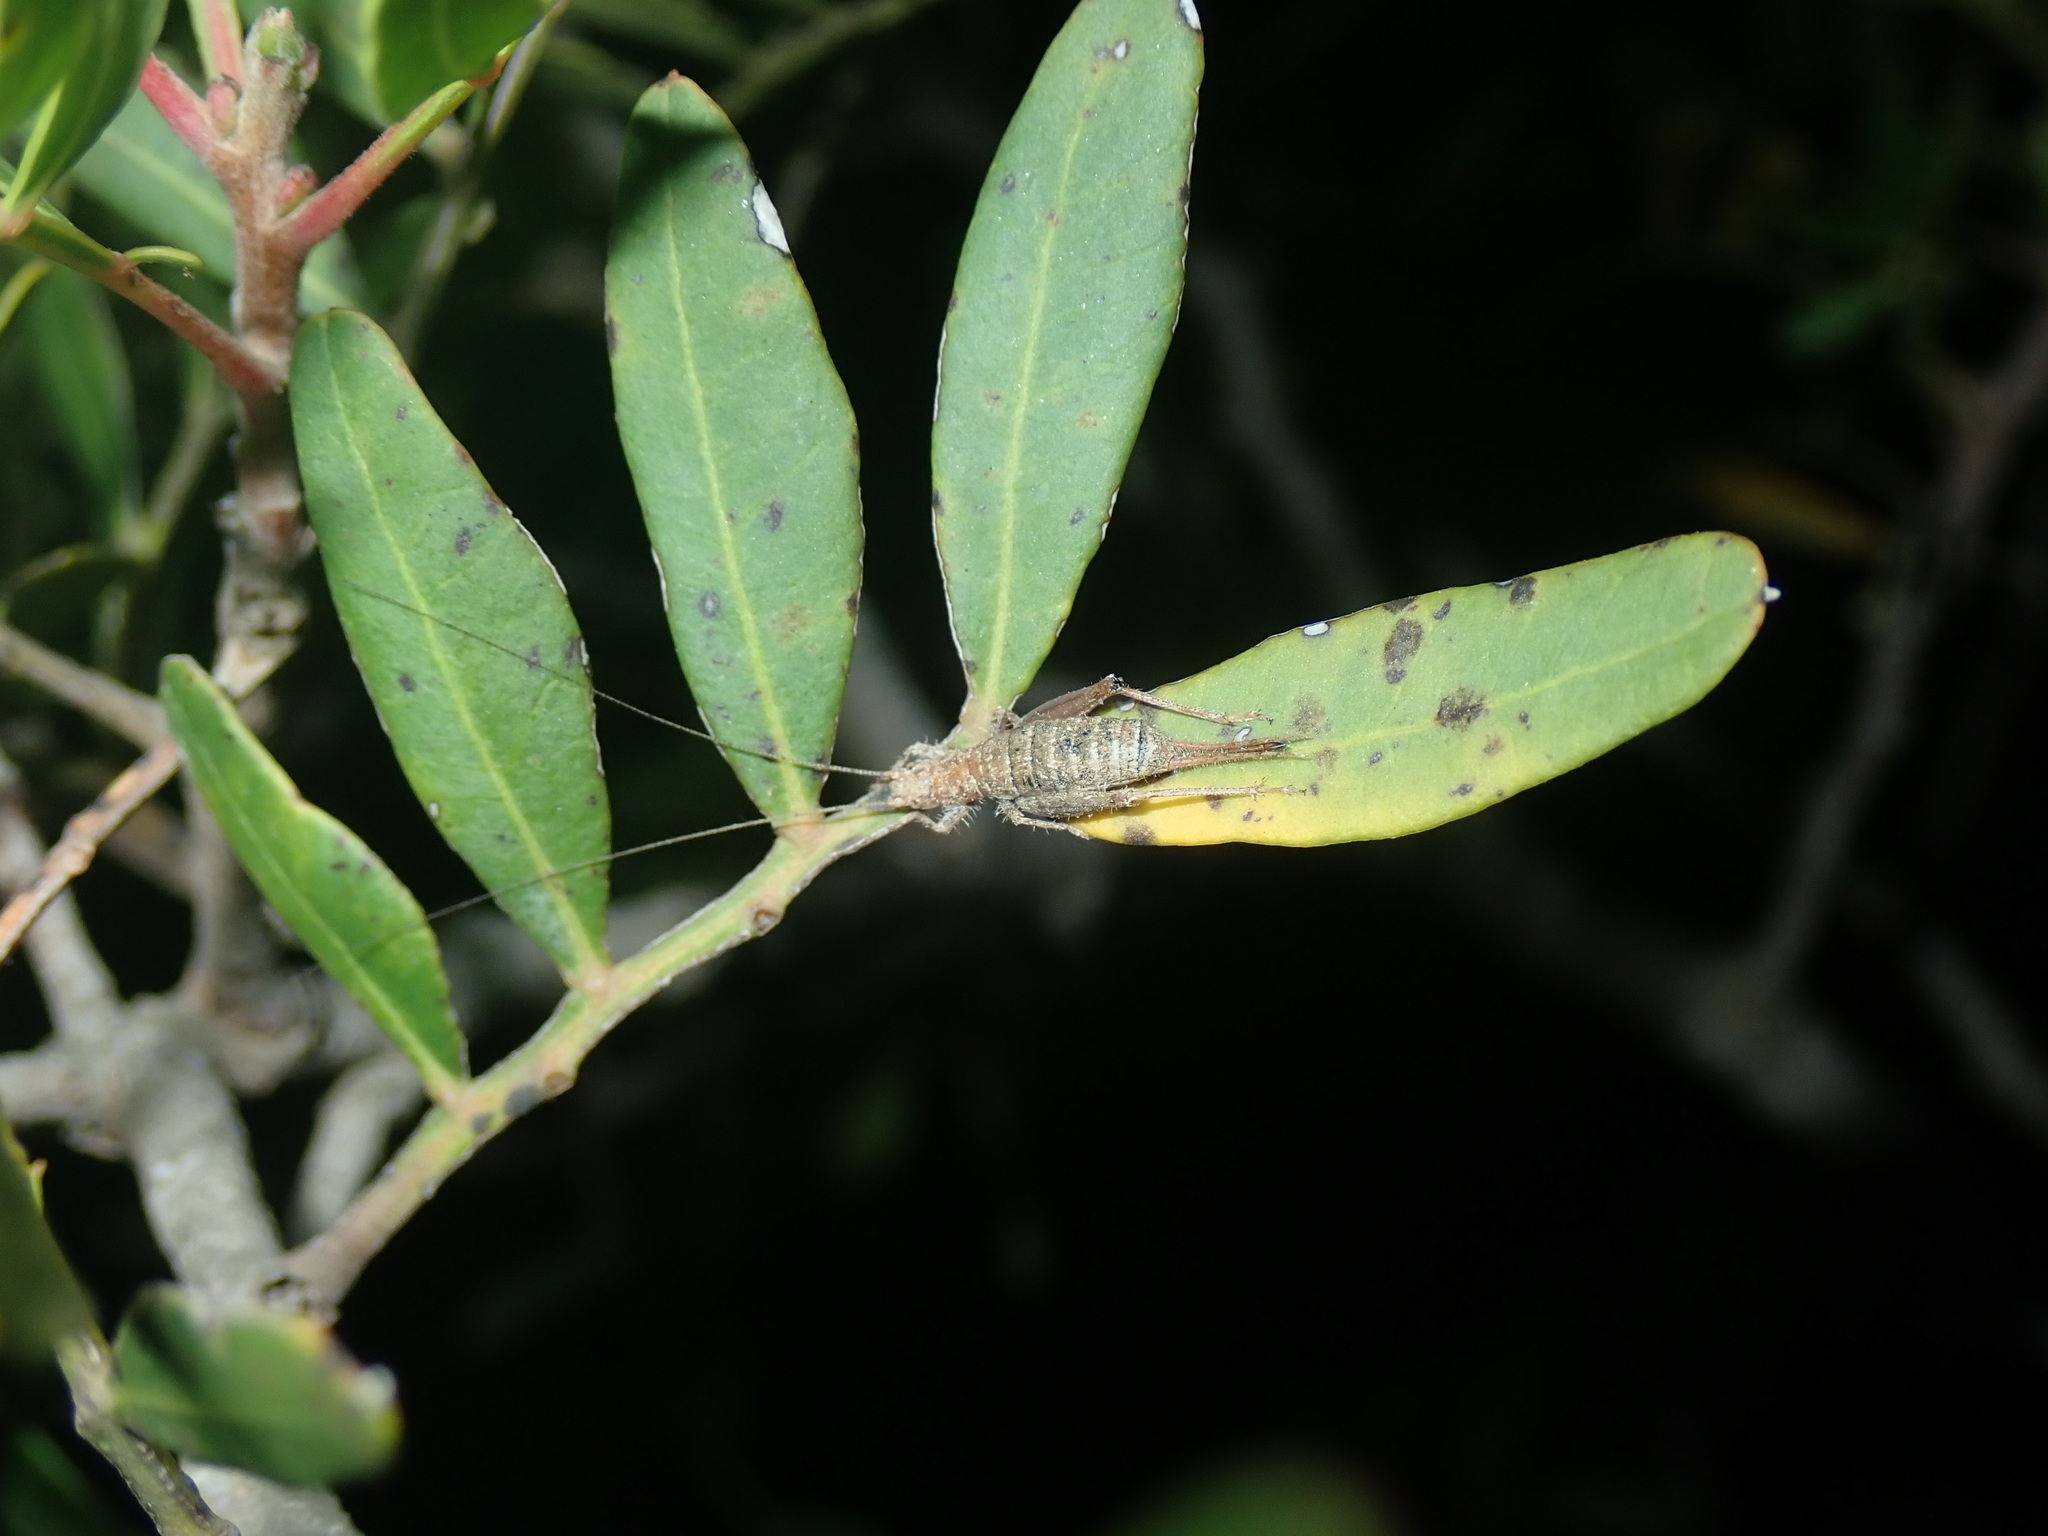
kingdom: Animalia
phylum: Arthropoda
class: Insecta
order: Orthoptera
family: Mogoplistidae
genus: Arachnocephalus
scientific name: Arachnocephalus vestitus
